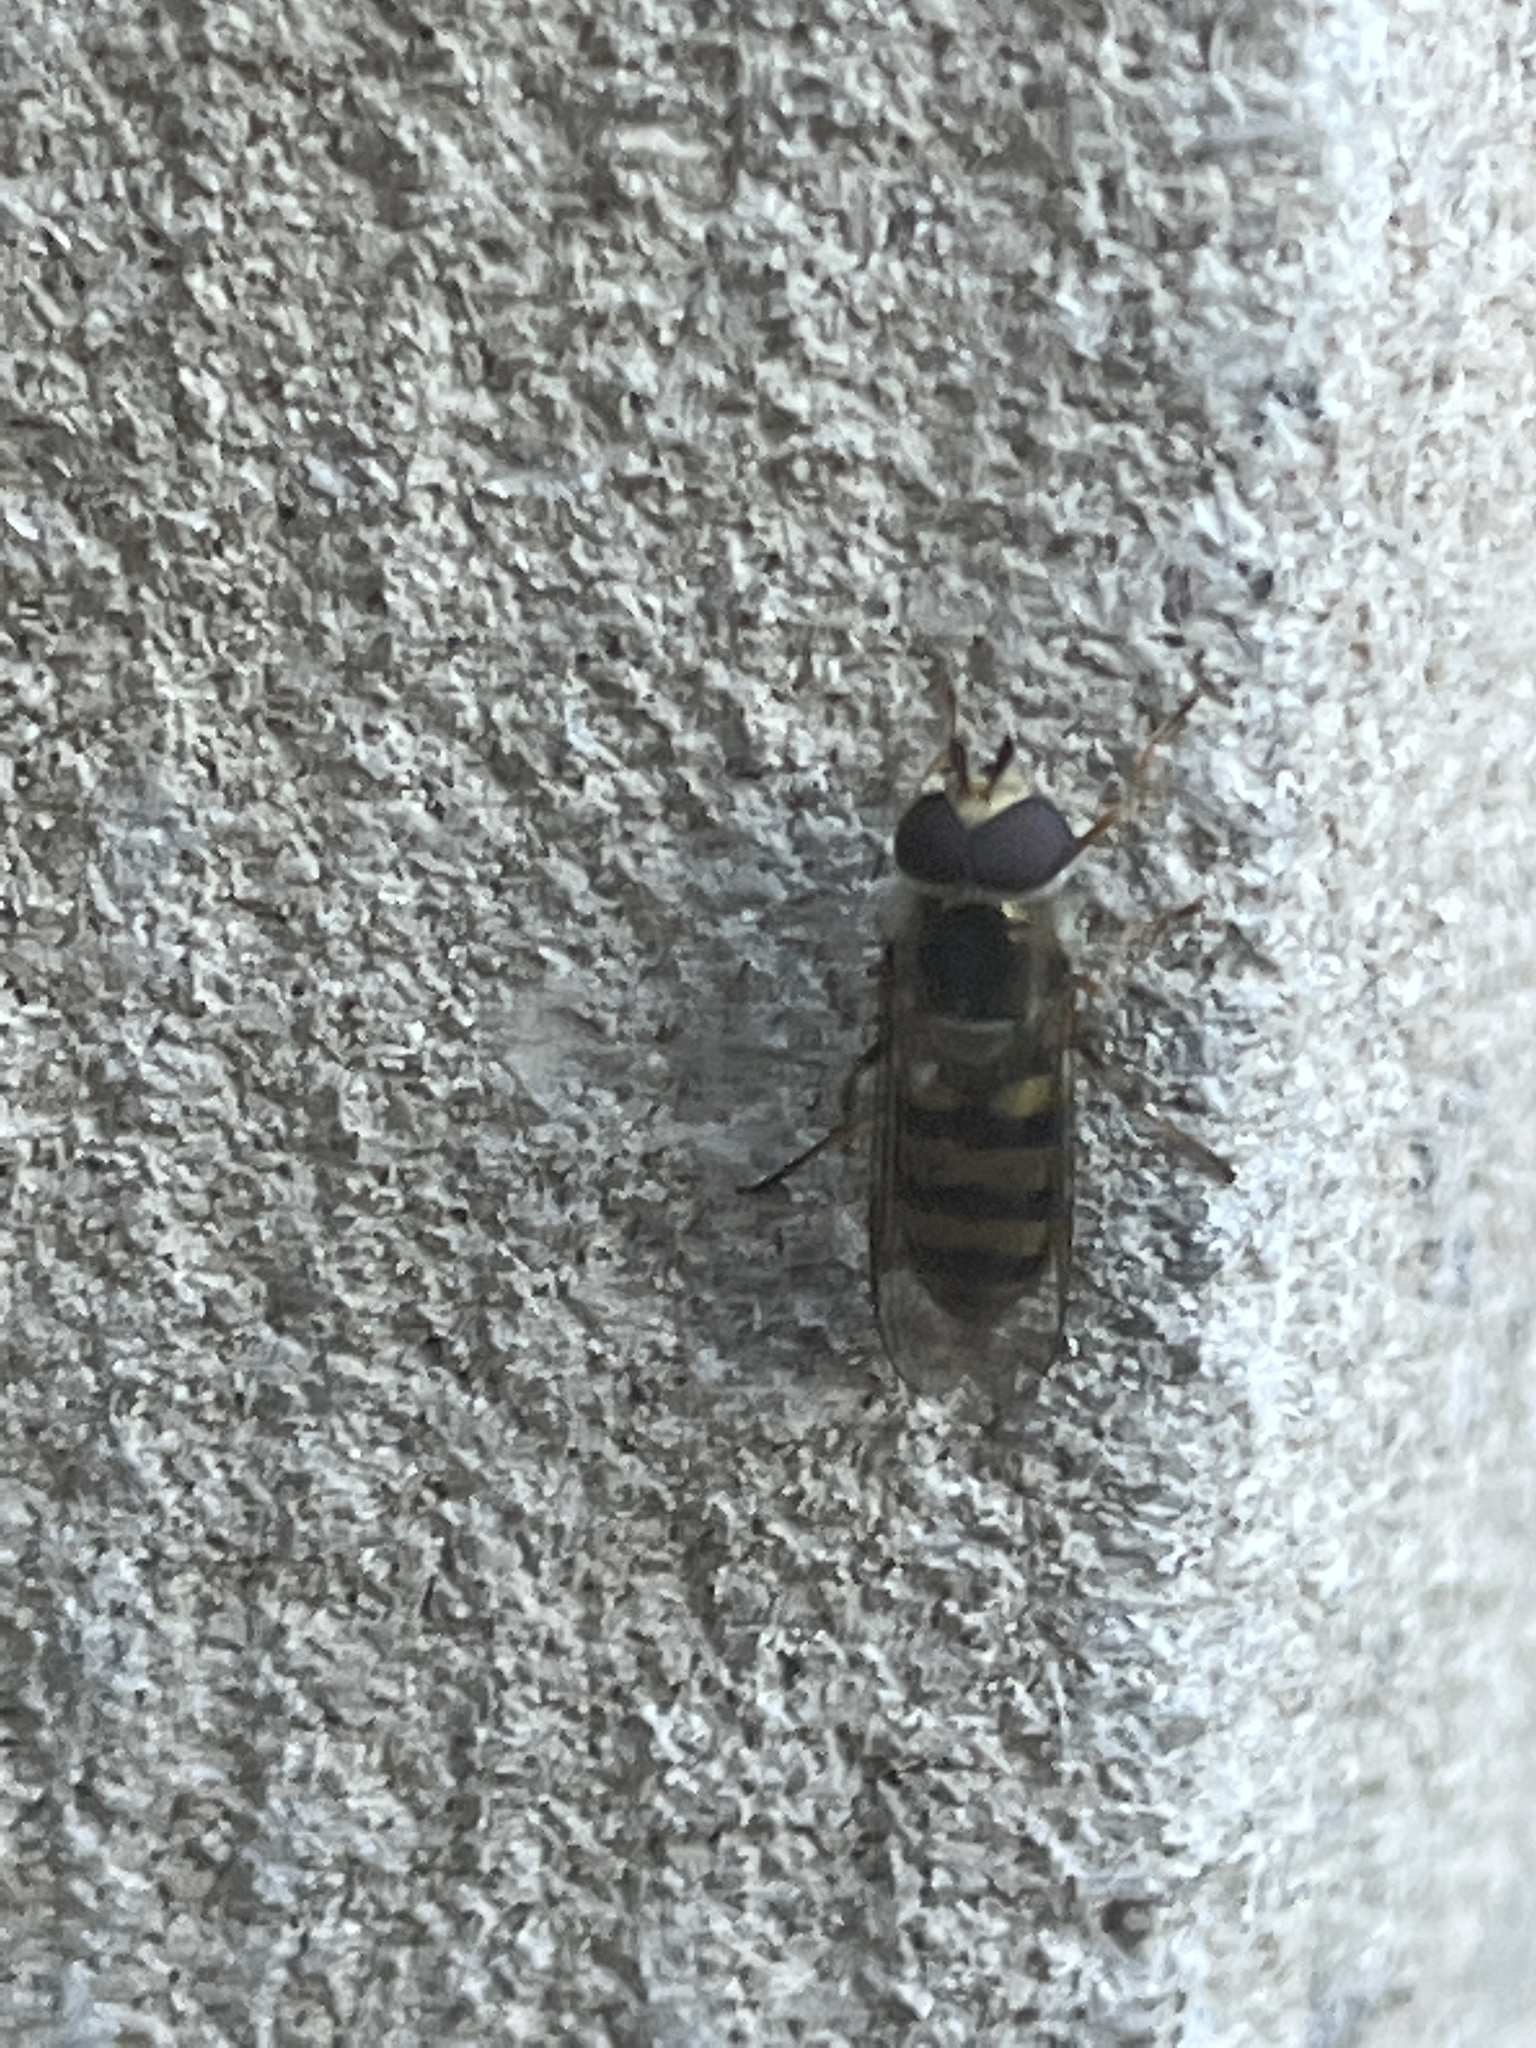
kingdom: Animalia
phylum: Arthropoda
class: Insecta
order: Diptera
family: Syrphidae
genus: Eupeodes
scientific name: Eupeodes
